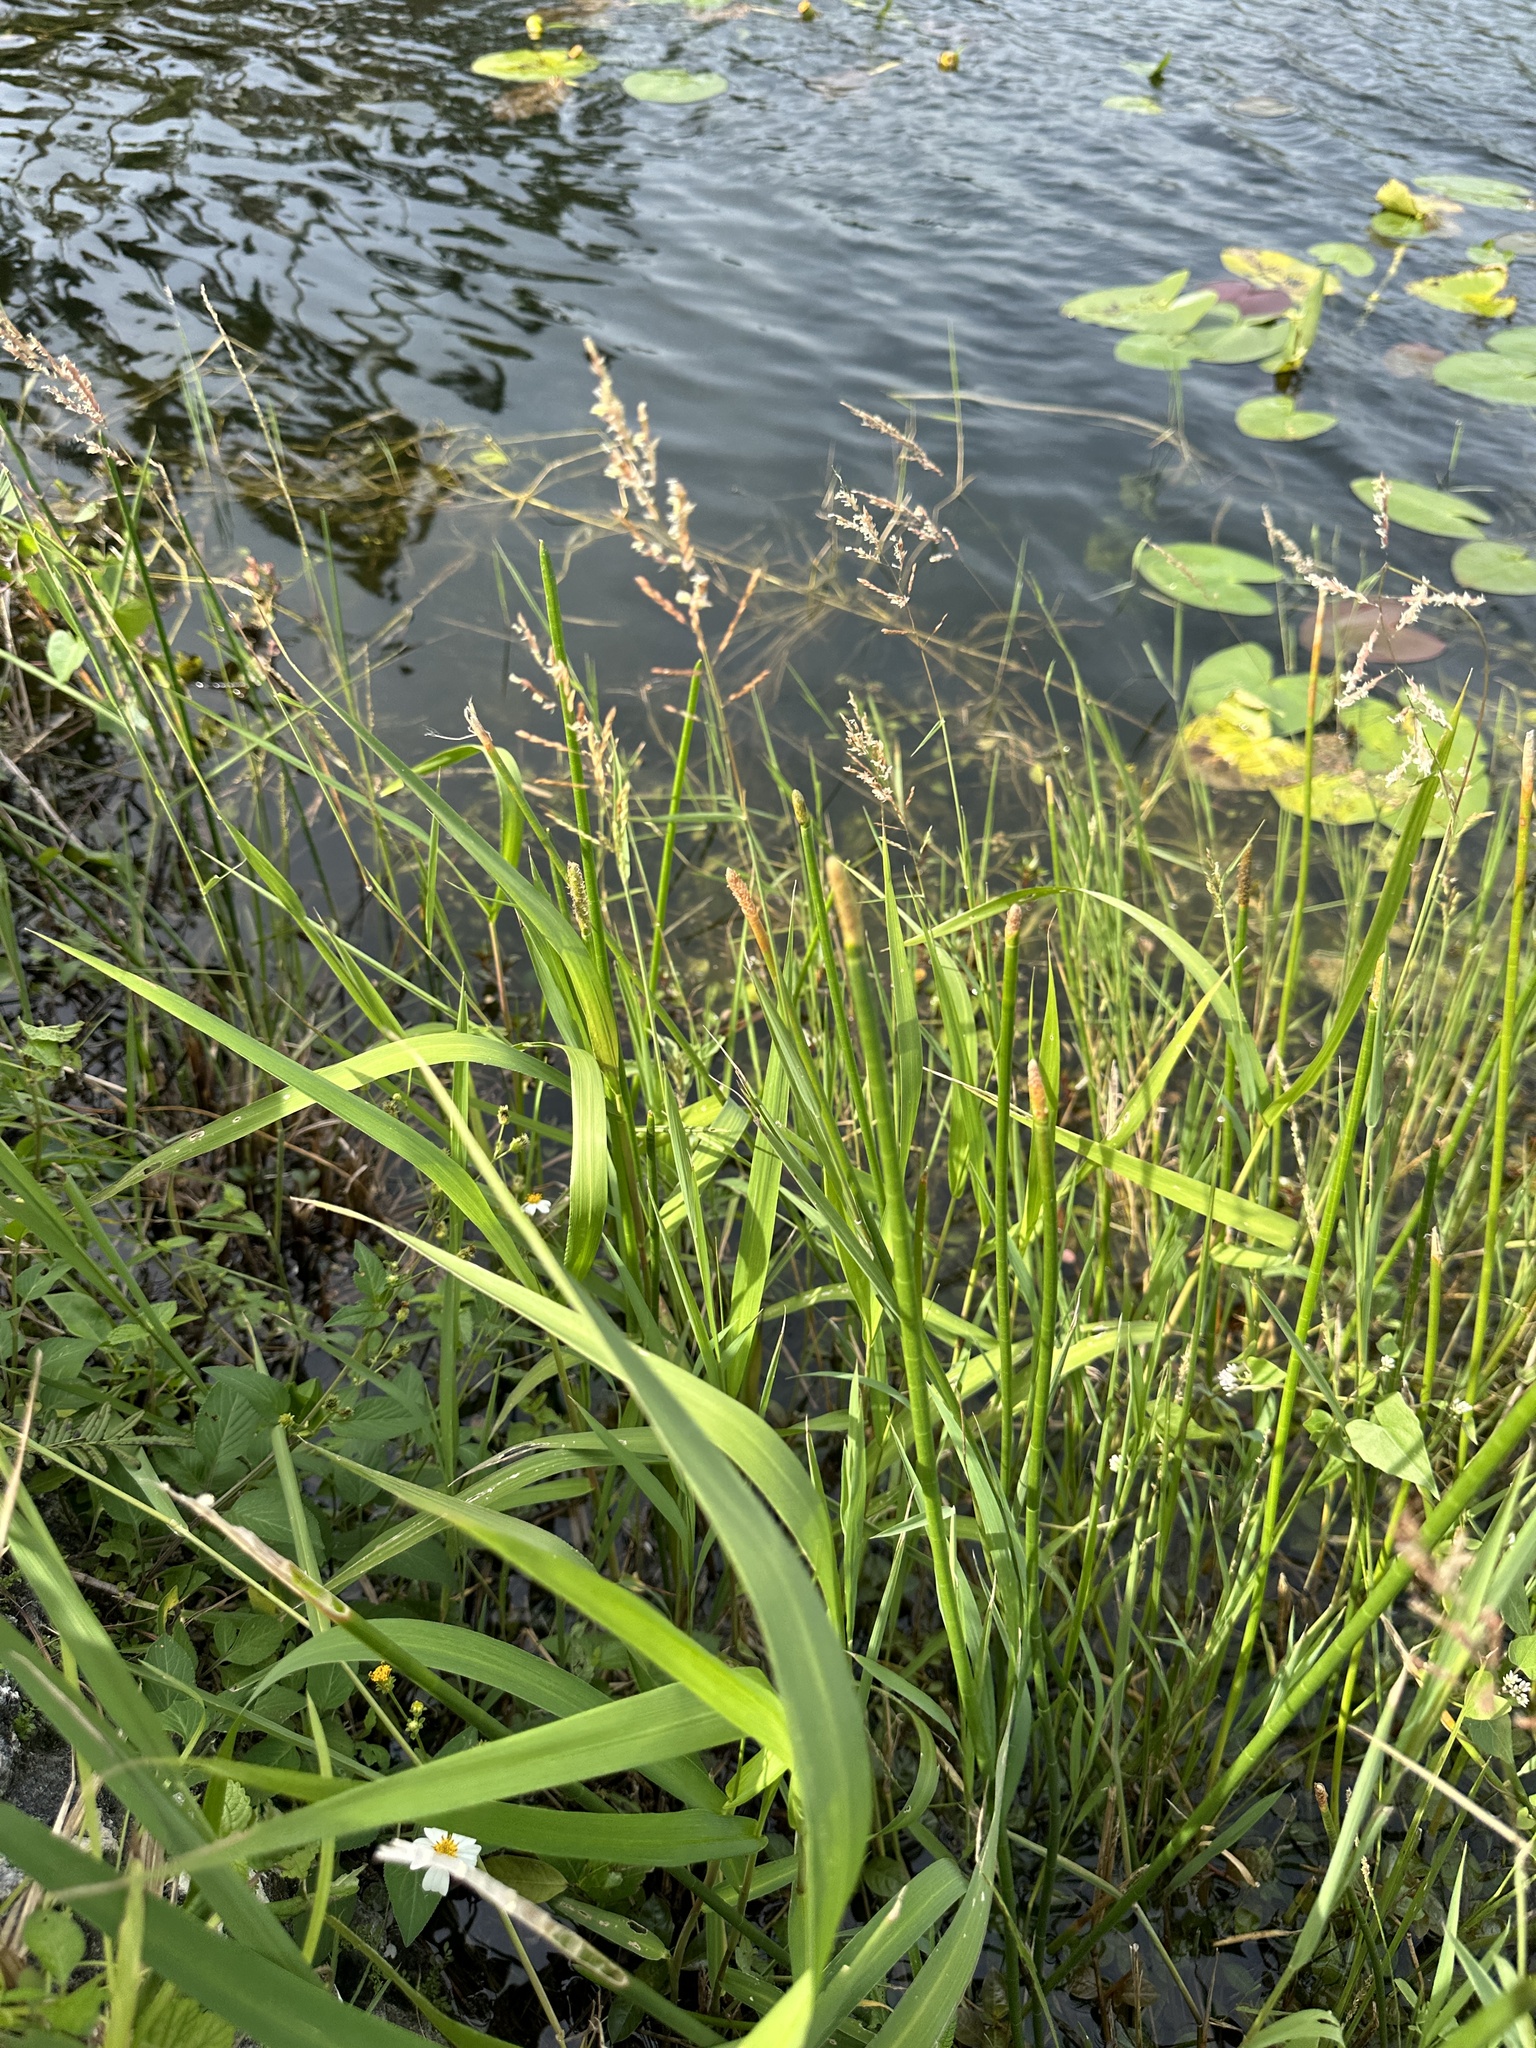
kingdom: Plantae
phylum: Tracheophyta
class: Liliopsida
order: Poales
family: Poaceae
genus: Leersia
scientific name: Leersia hexandra
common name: Southern cut grass
